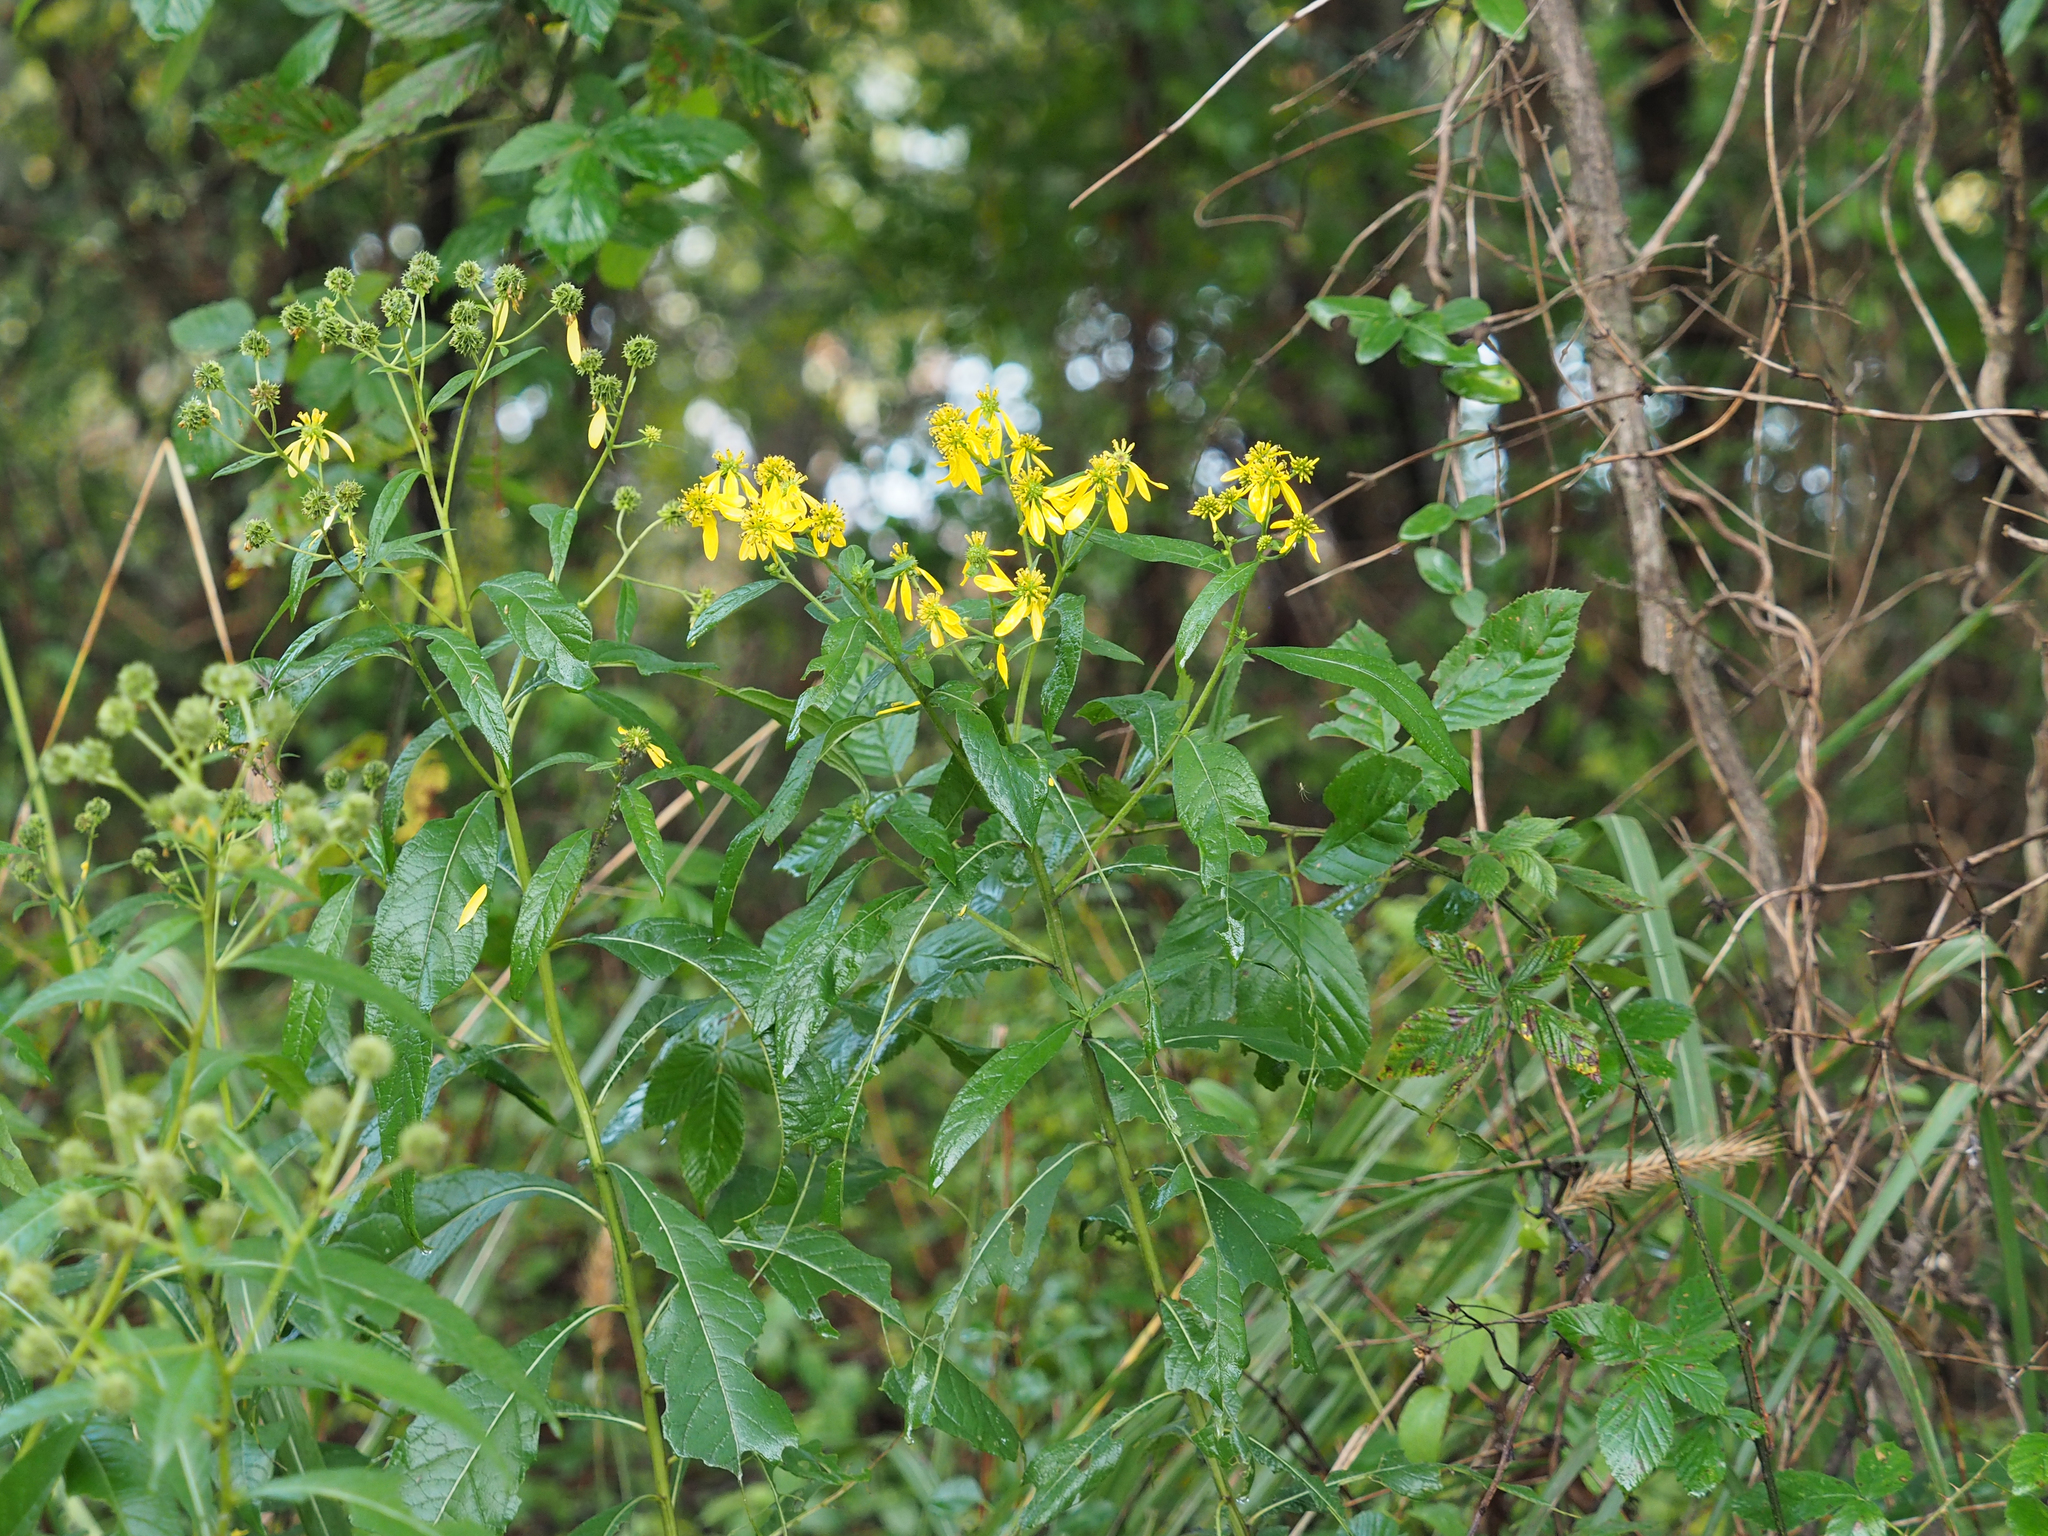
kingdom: Plantae
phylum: Tracheophyta
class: Magnoliopsida
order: Asterales
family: Asteraceae
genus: Verbesina
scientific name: Verbesina alternifolia
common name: Wingstem
